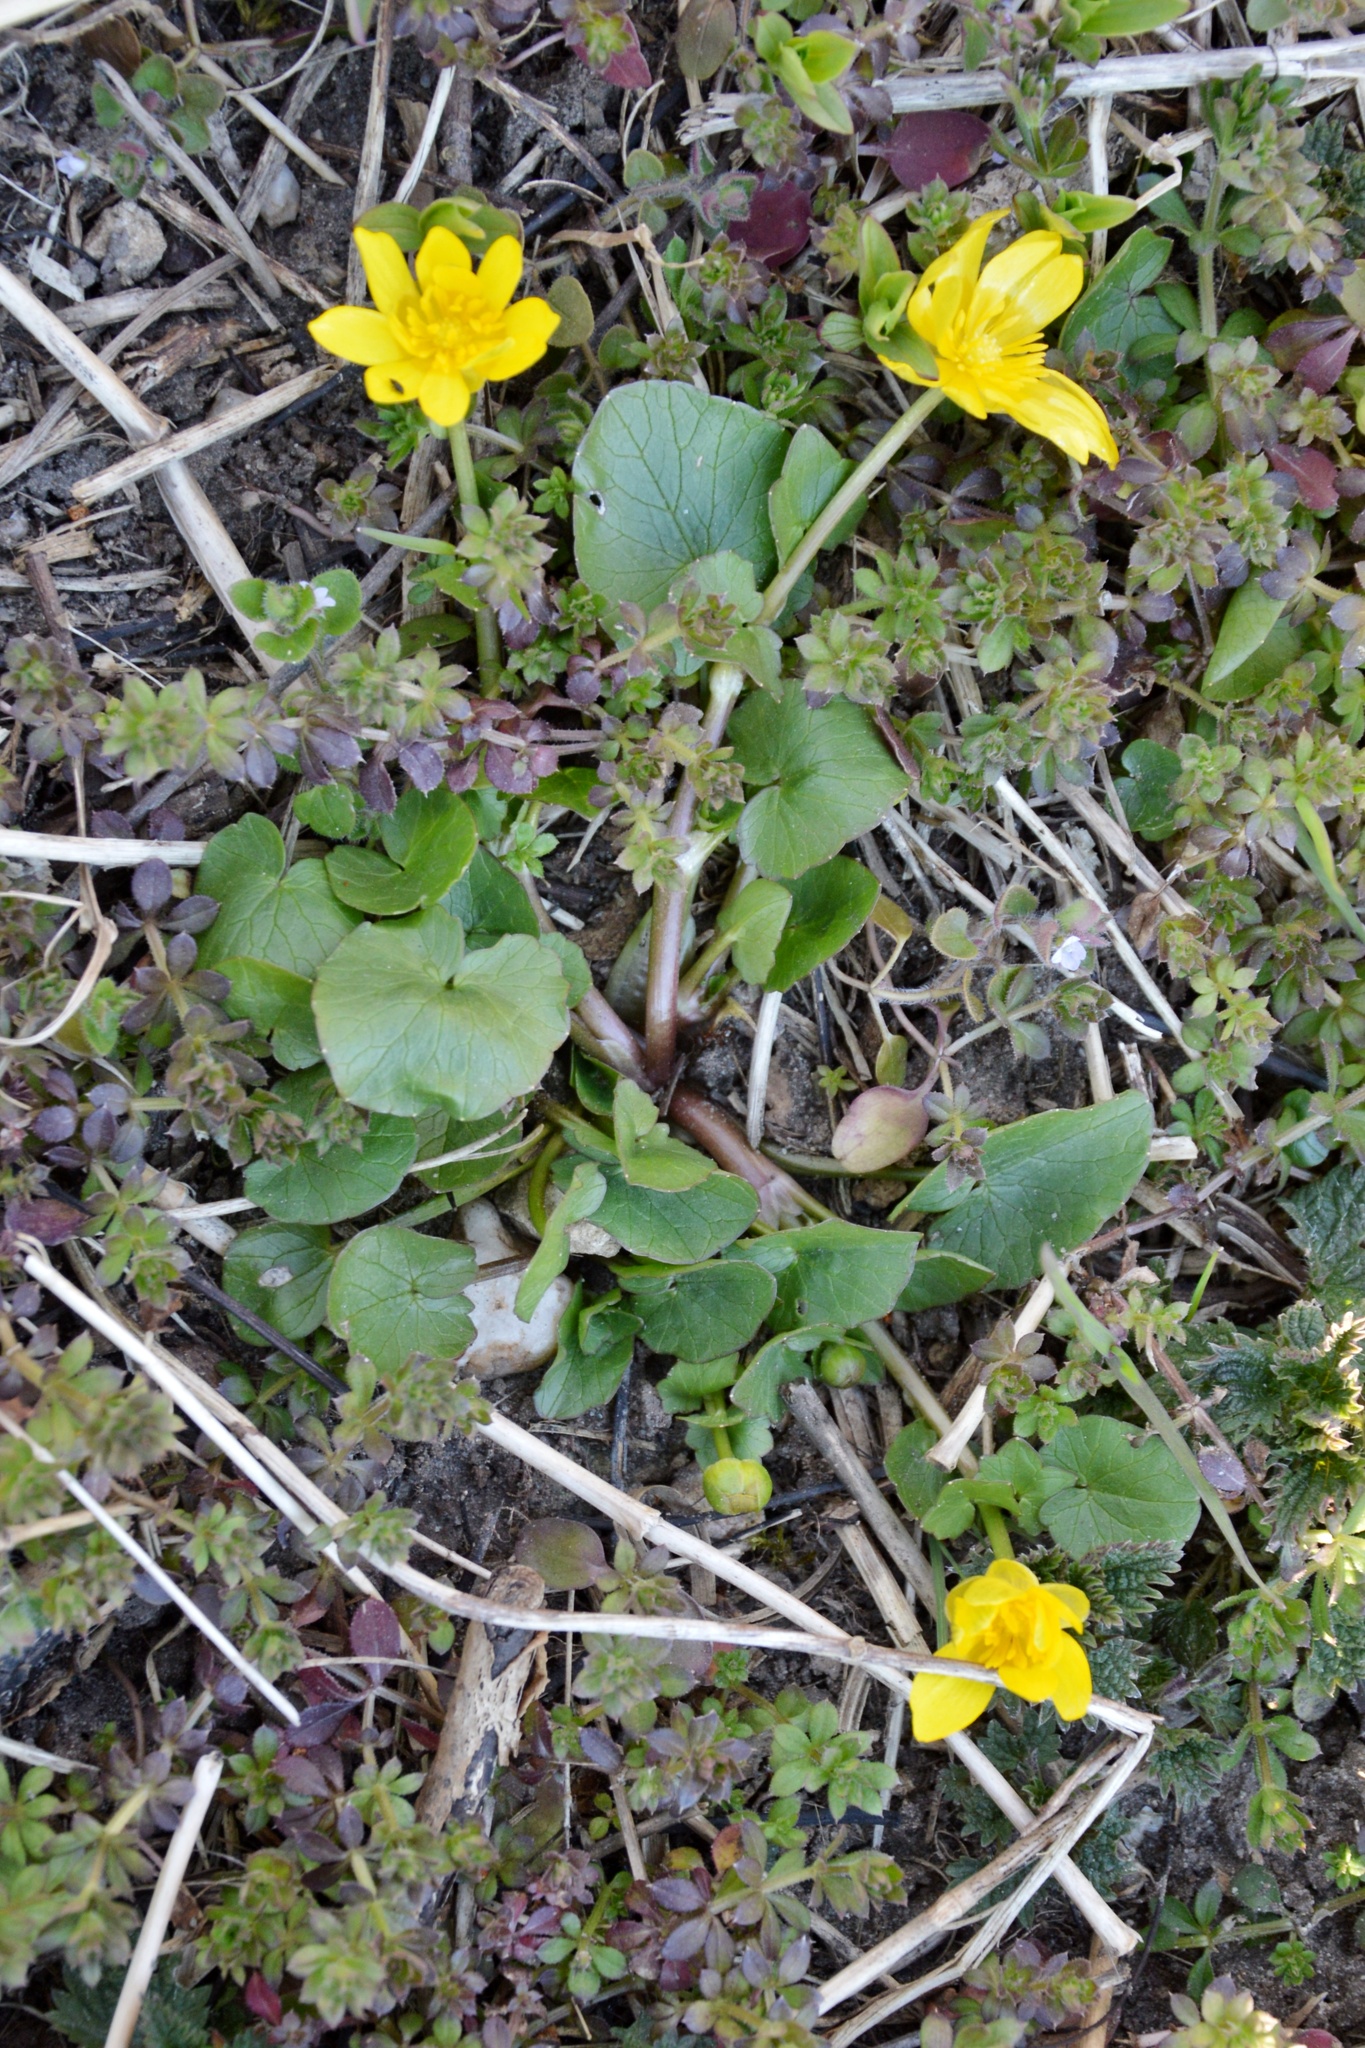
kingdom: Plantae
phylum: Tracheophyta
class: Magnoliopsida
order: Ranunculales
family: Ranunculaceae
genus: Ficaria
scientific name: Ficaria verna
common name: Lesser celandine
